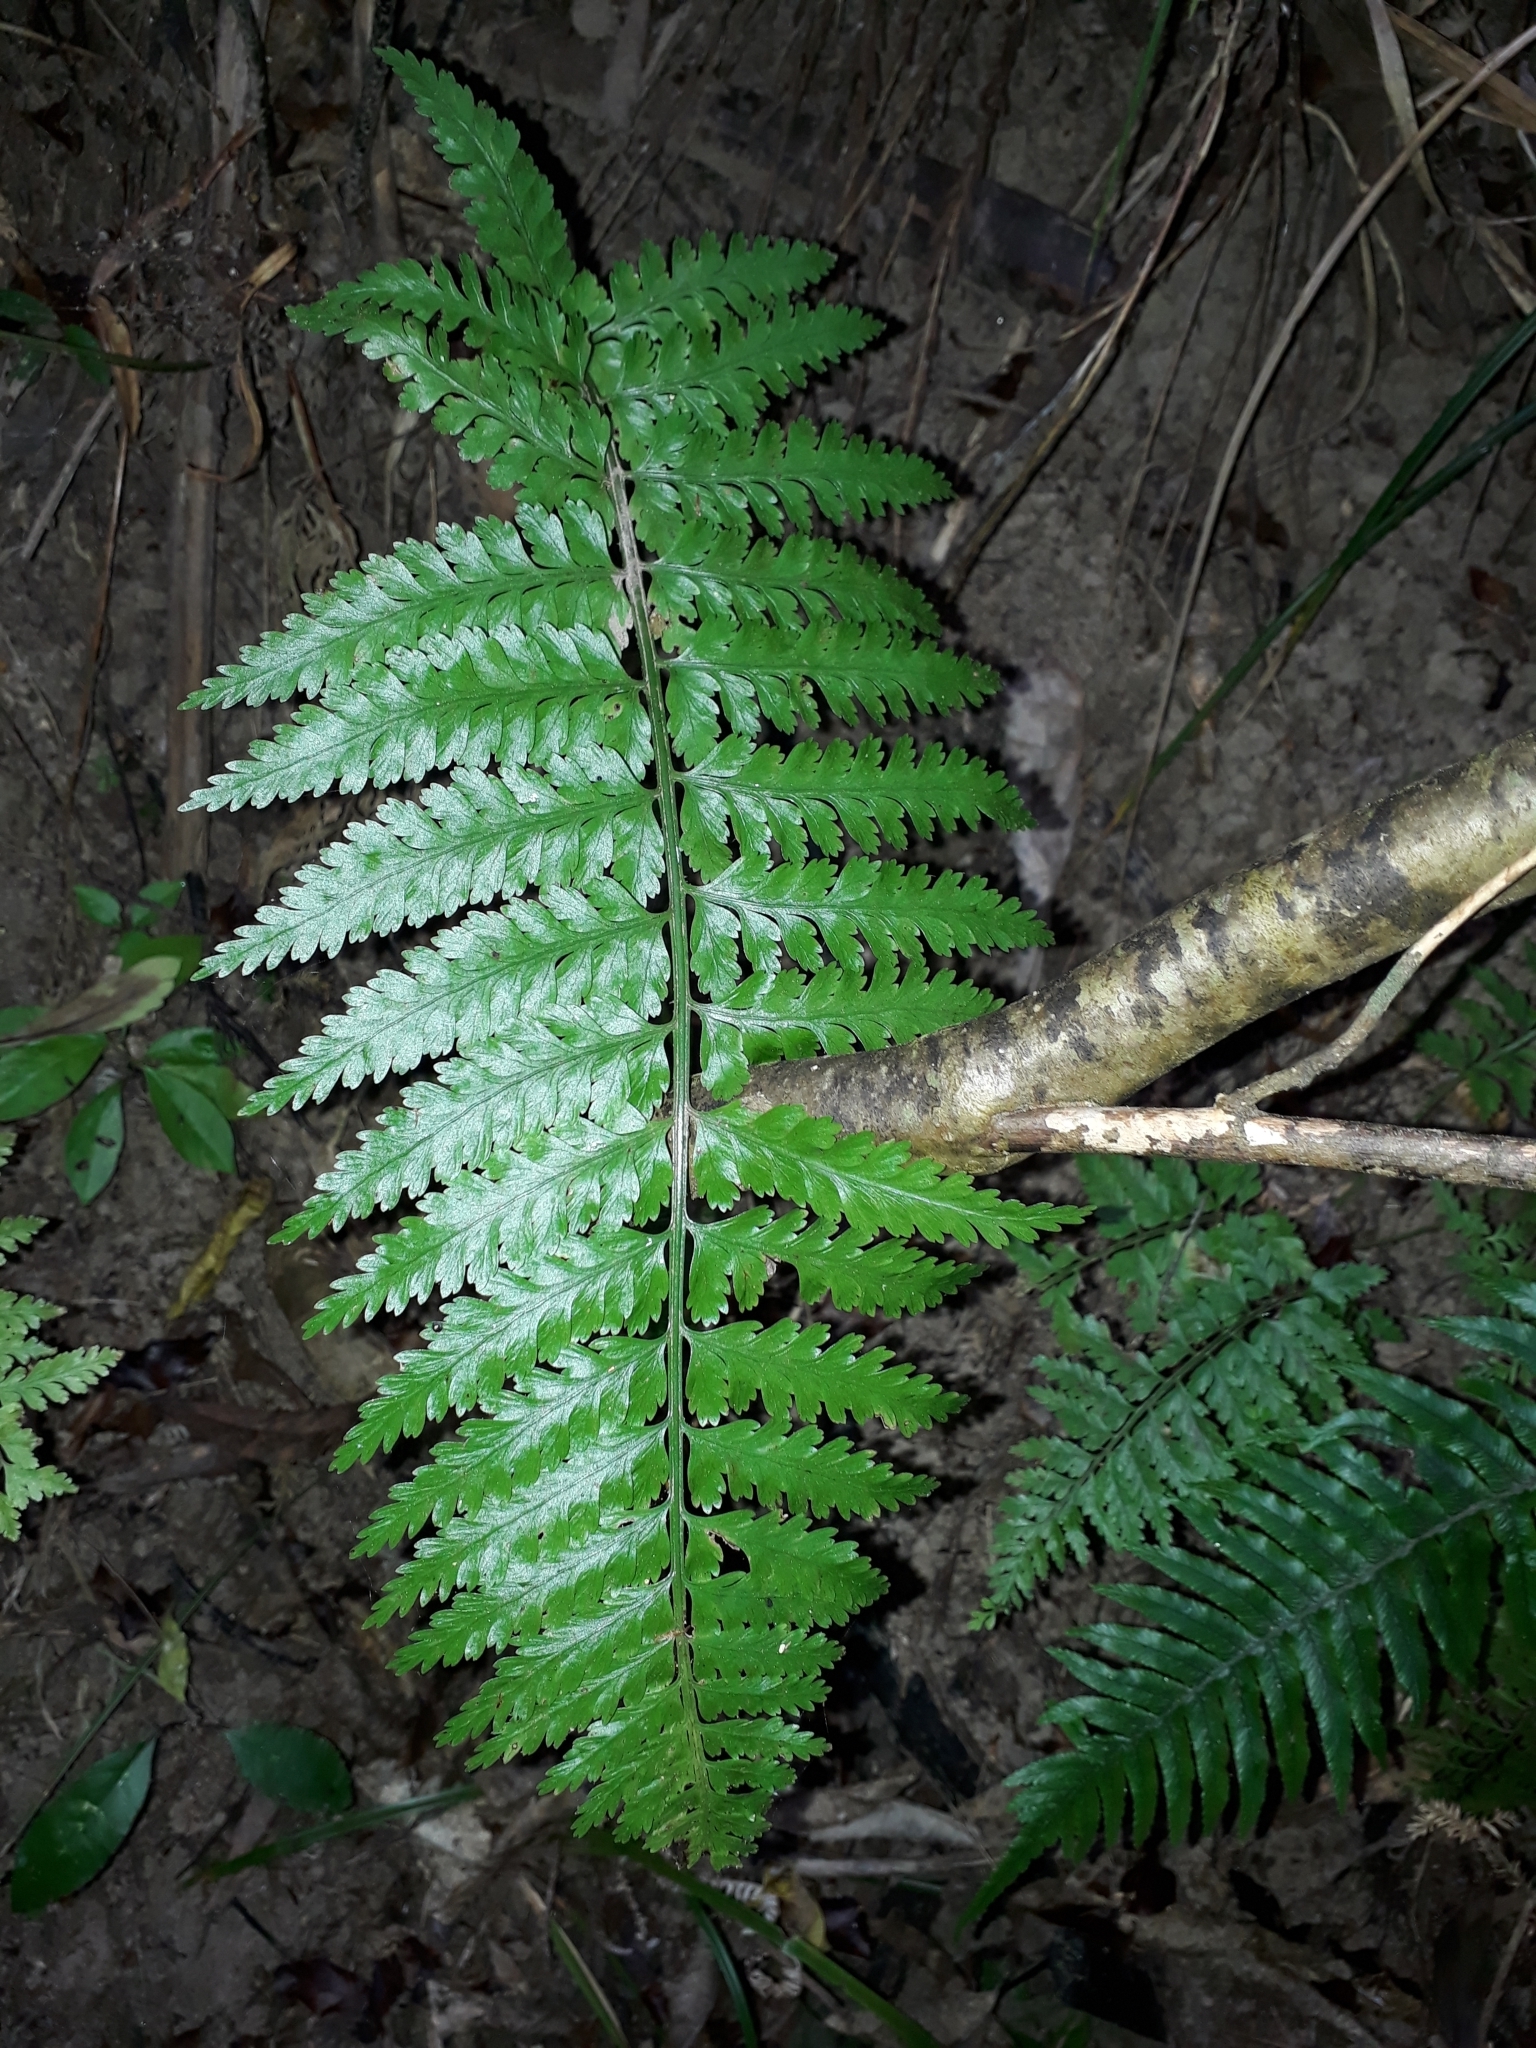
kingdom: Plantae
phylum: Tracheophyta
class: Polypodiopsida
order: Polypodiales
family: Aspleniaceae
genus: Asplenium
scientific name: Asplenium bulbiferum
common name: Mother fern
